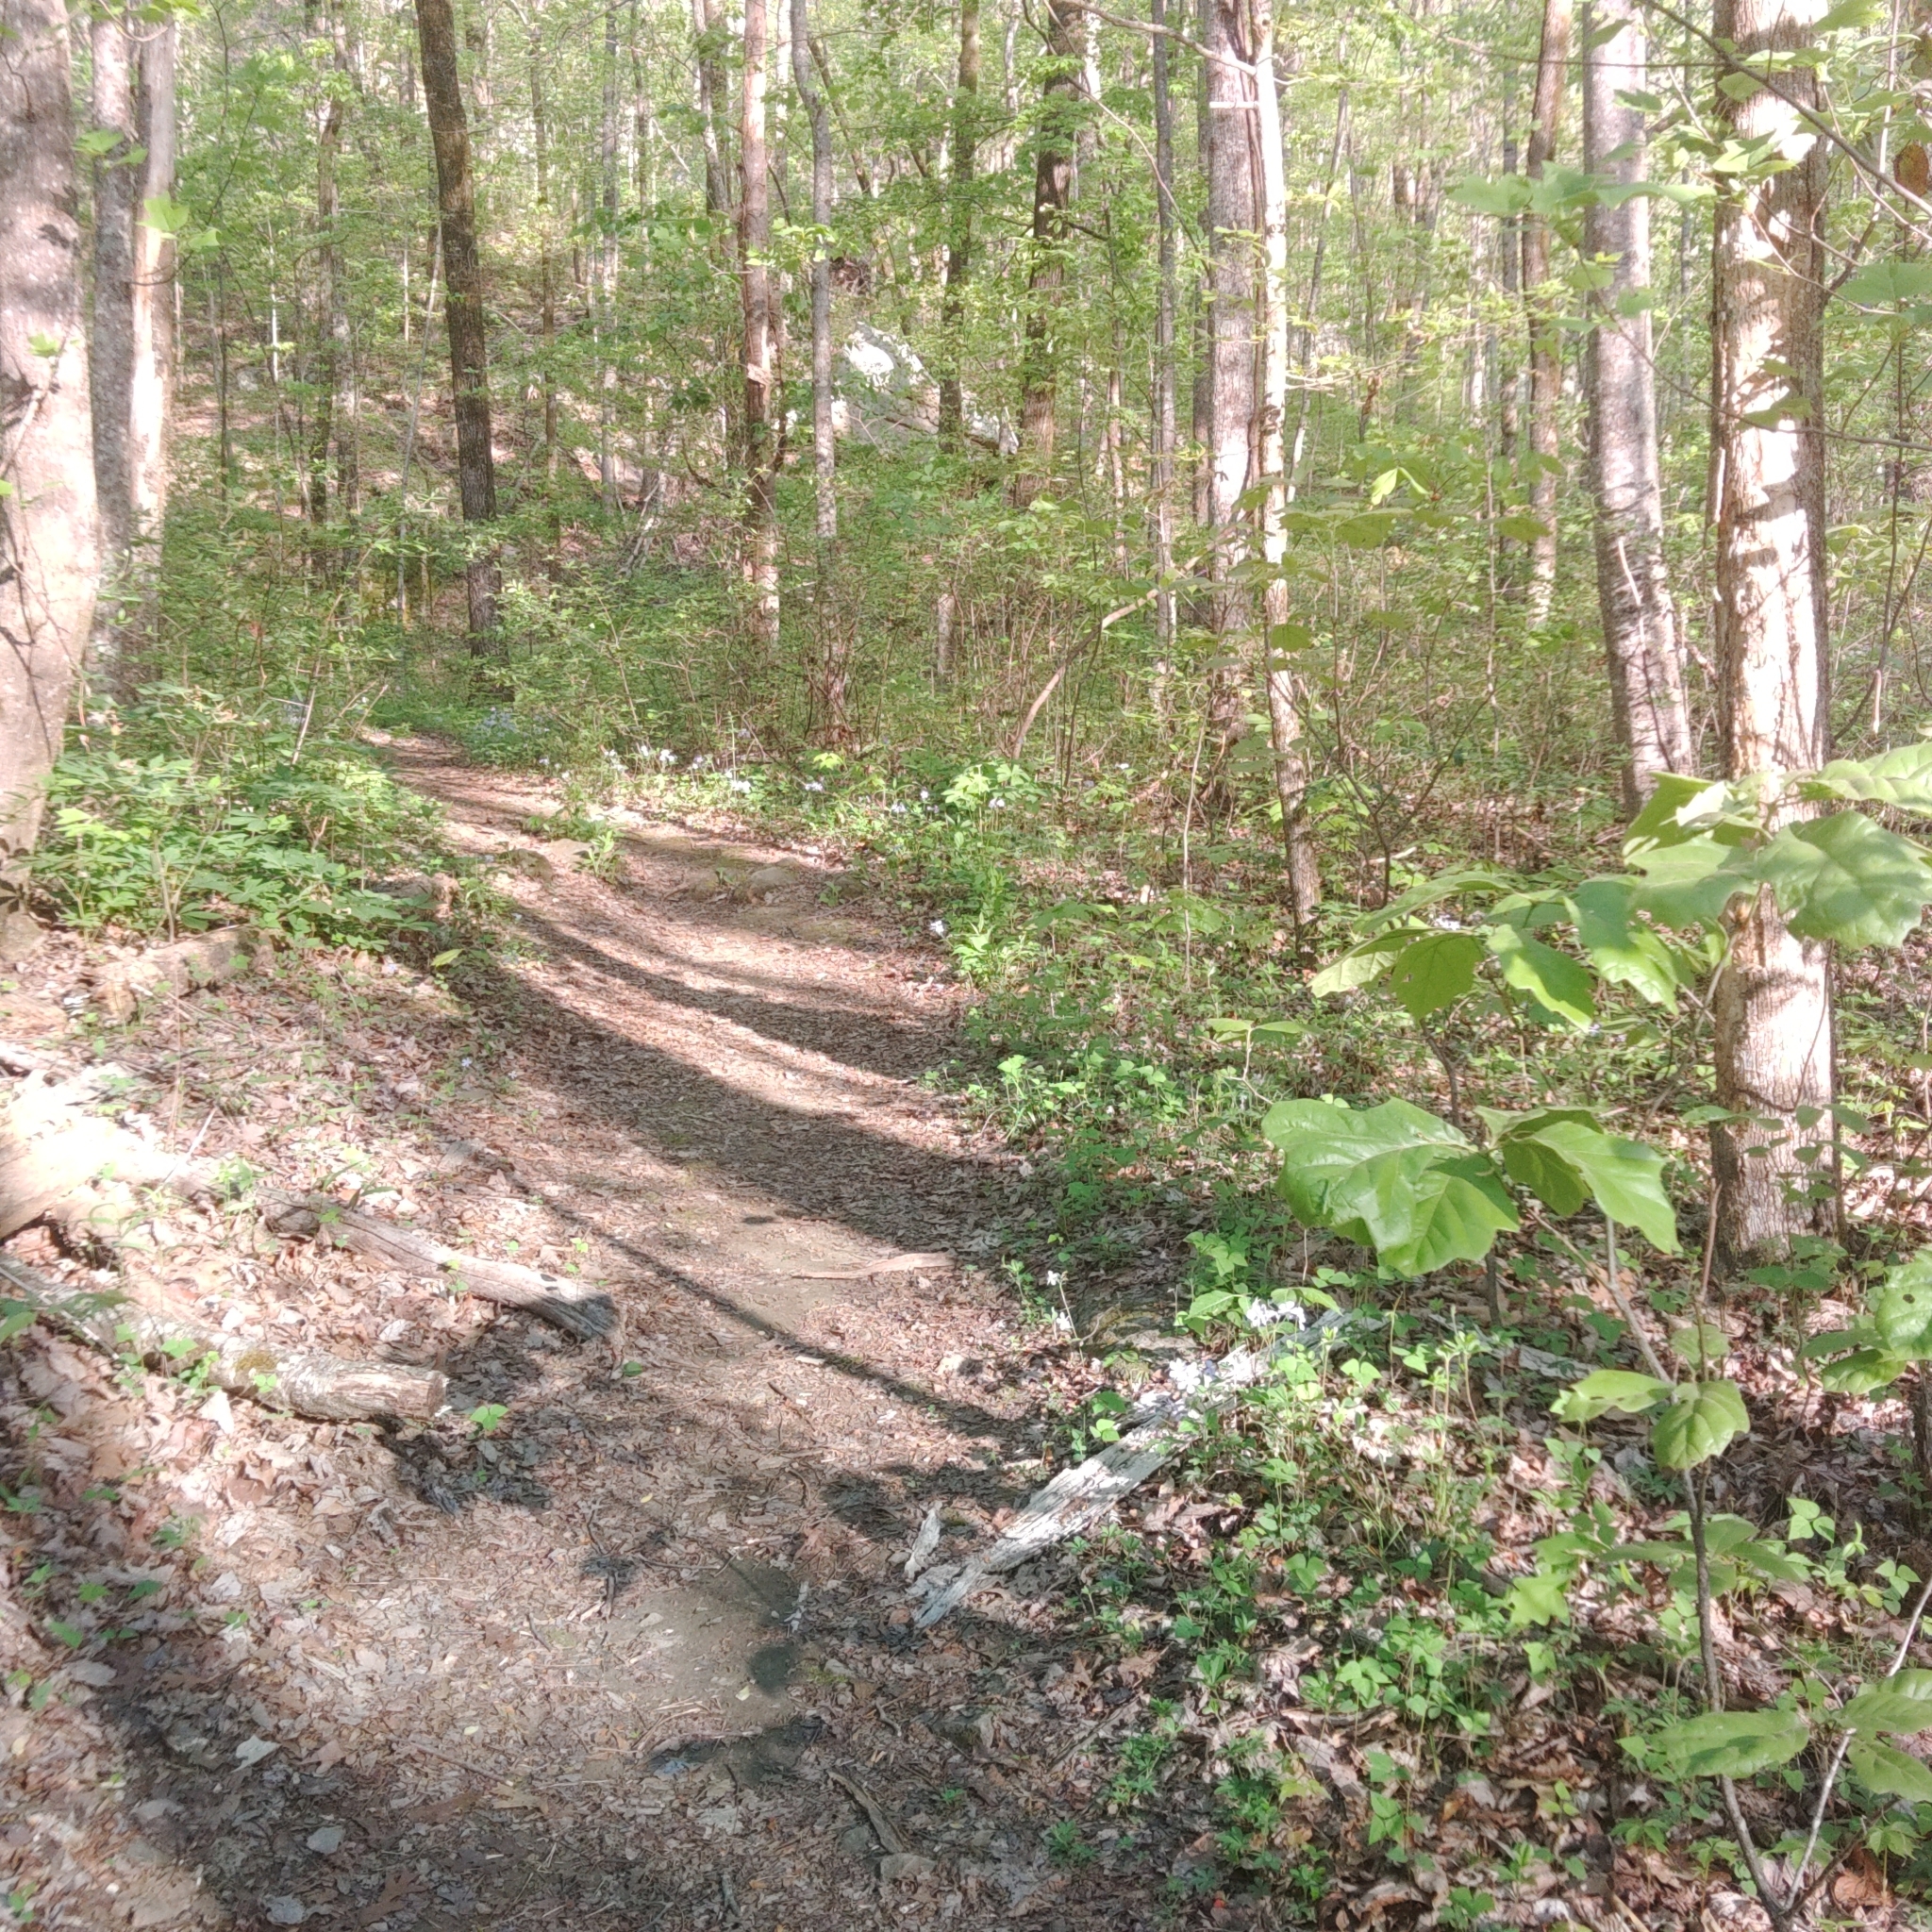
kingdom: Plantae
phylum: Tracheophyta
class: Magnoliopsida
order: Ericales
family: Polemoniaceae
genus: Phlox
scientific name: Phlox divaricata
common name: Blue phlox
